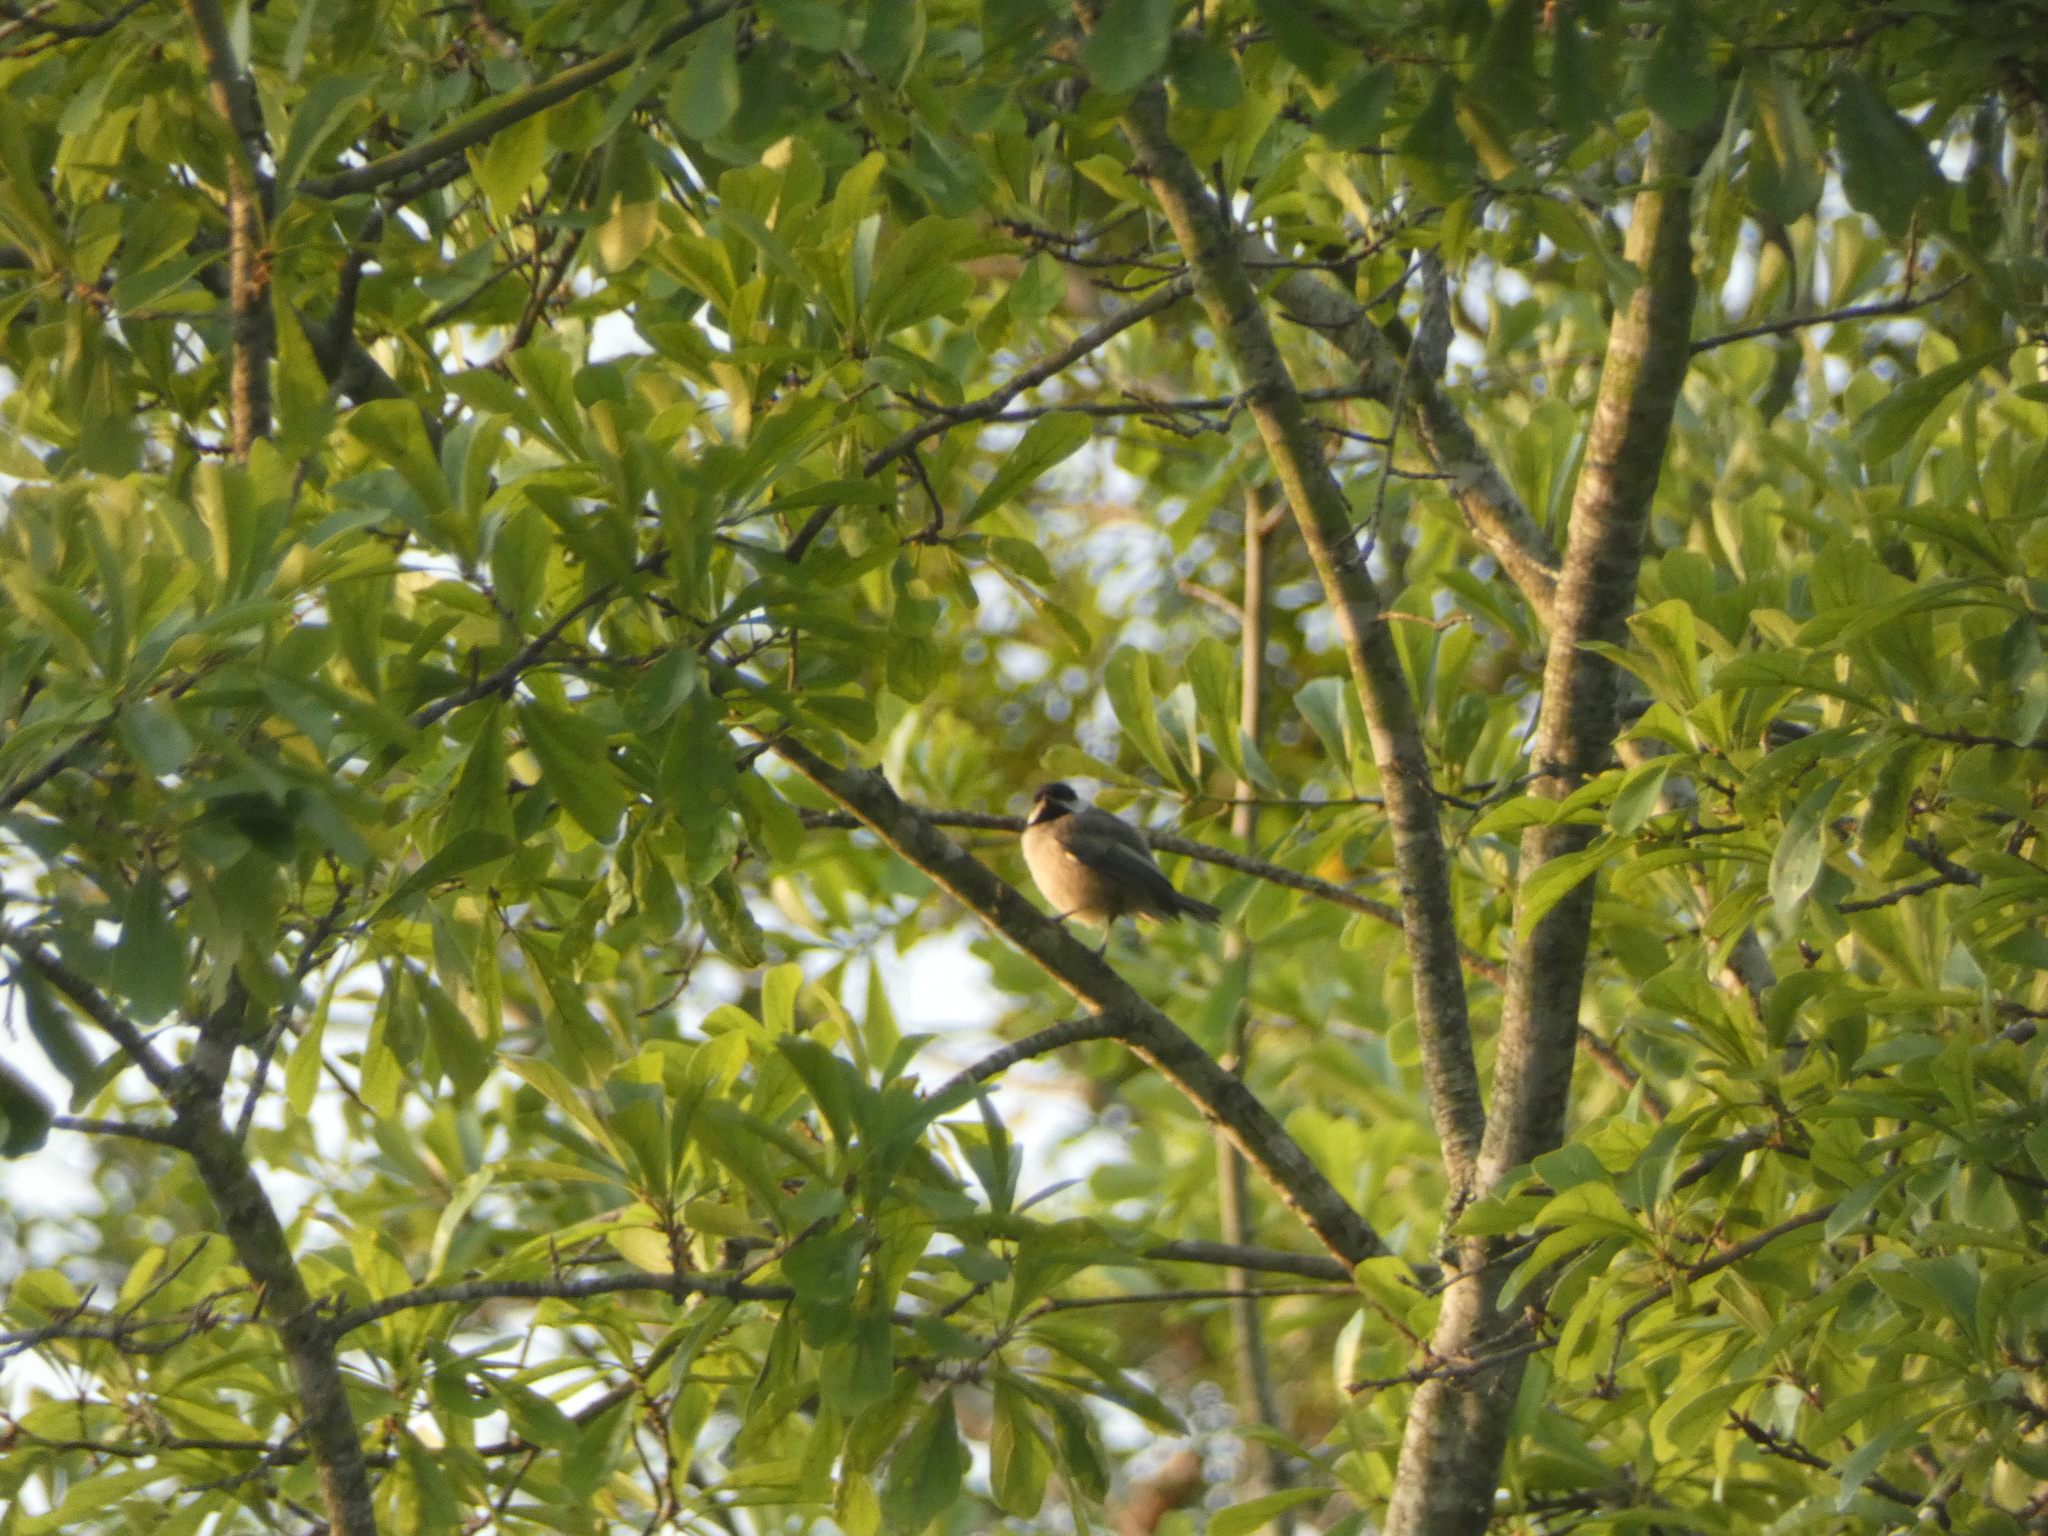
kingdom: Animalia
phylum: Chordata
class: Aves
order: Passeriformes
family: Paridae
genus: Poecile
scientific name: Poecile carolinensis
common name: Carolina chickadee
